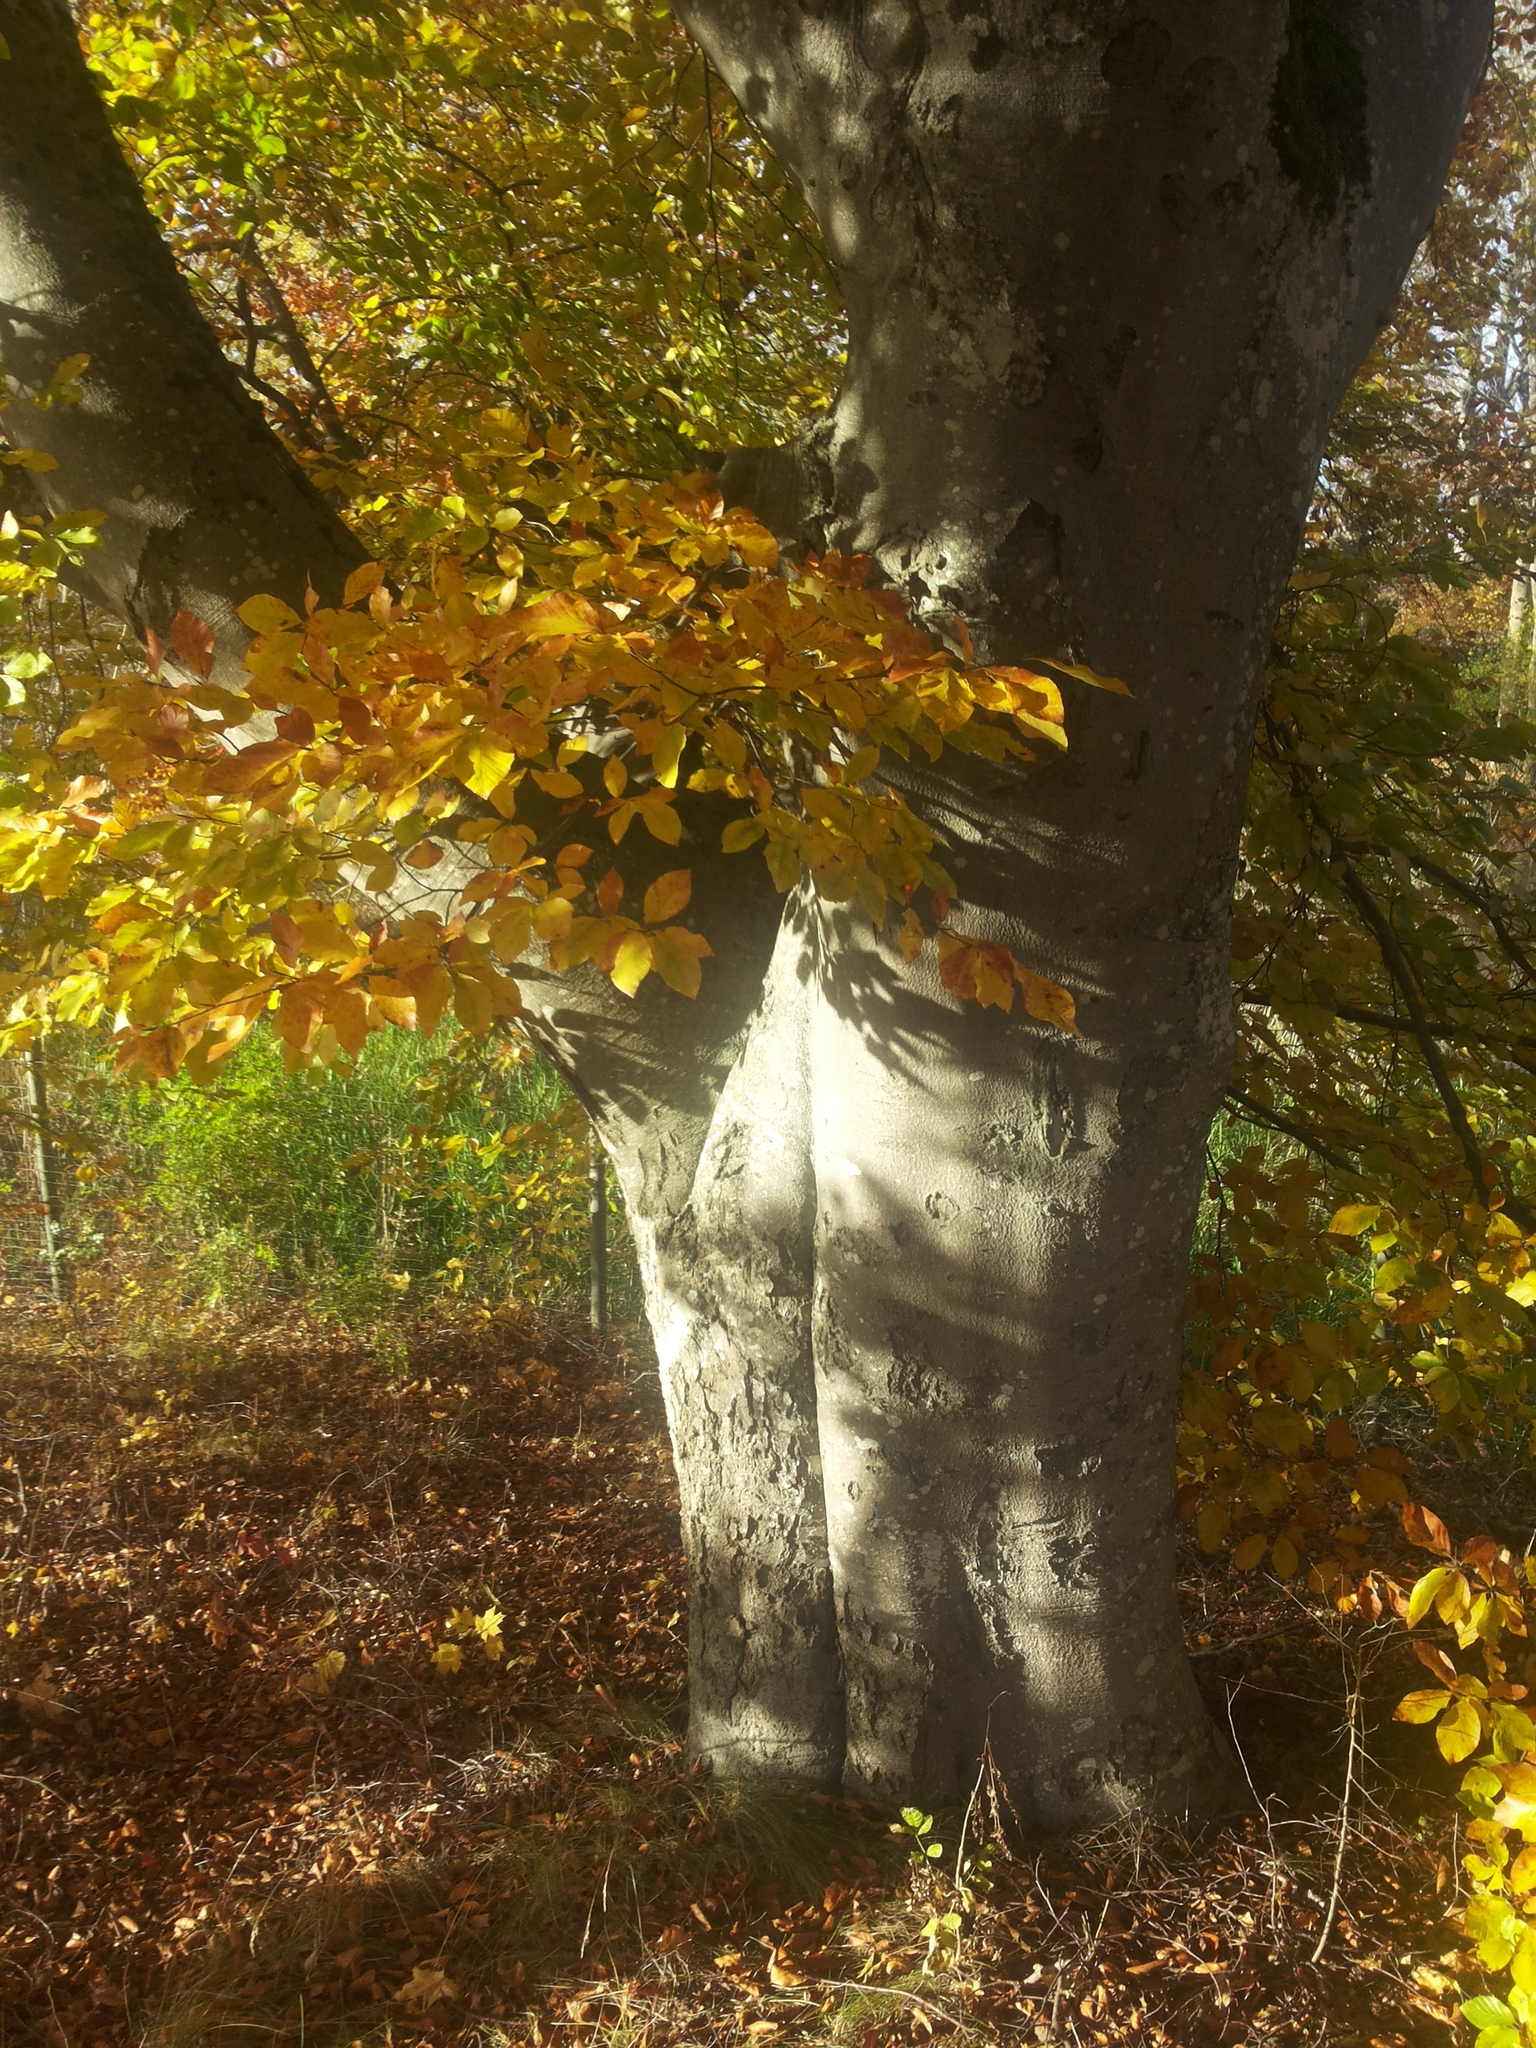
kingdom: Plantae
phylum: Tracheophyta
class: Magnoliopsida
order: Fagales
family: Fagaceae
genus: Fagus
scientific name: Fagus sylvatica
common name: Beech
